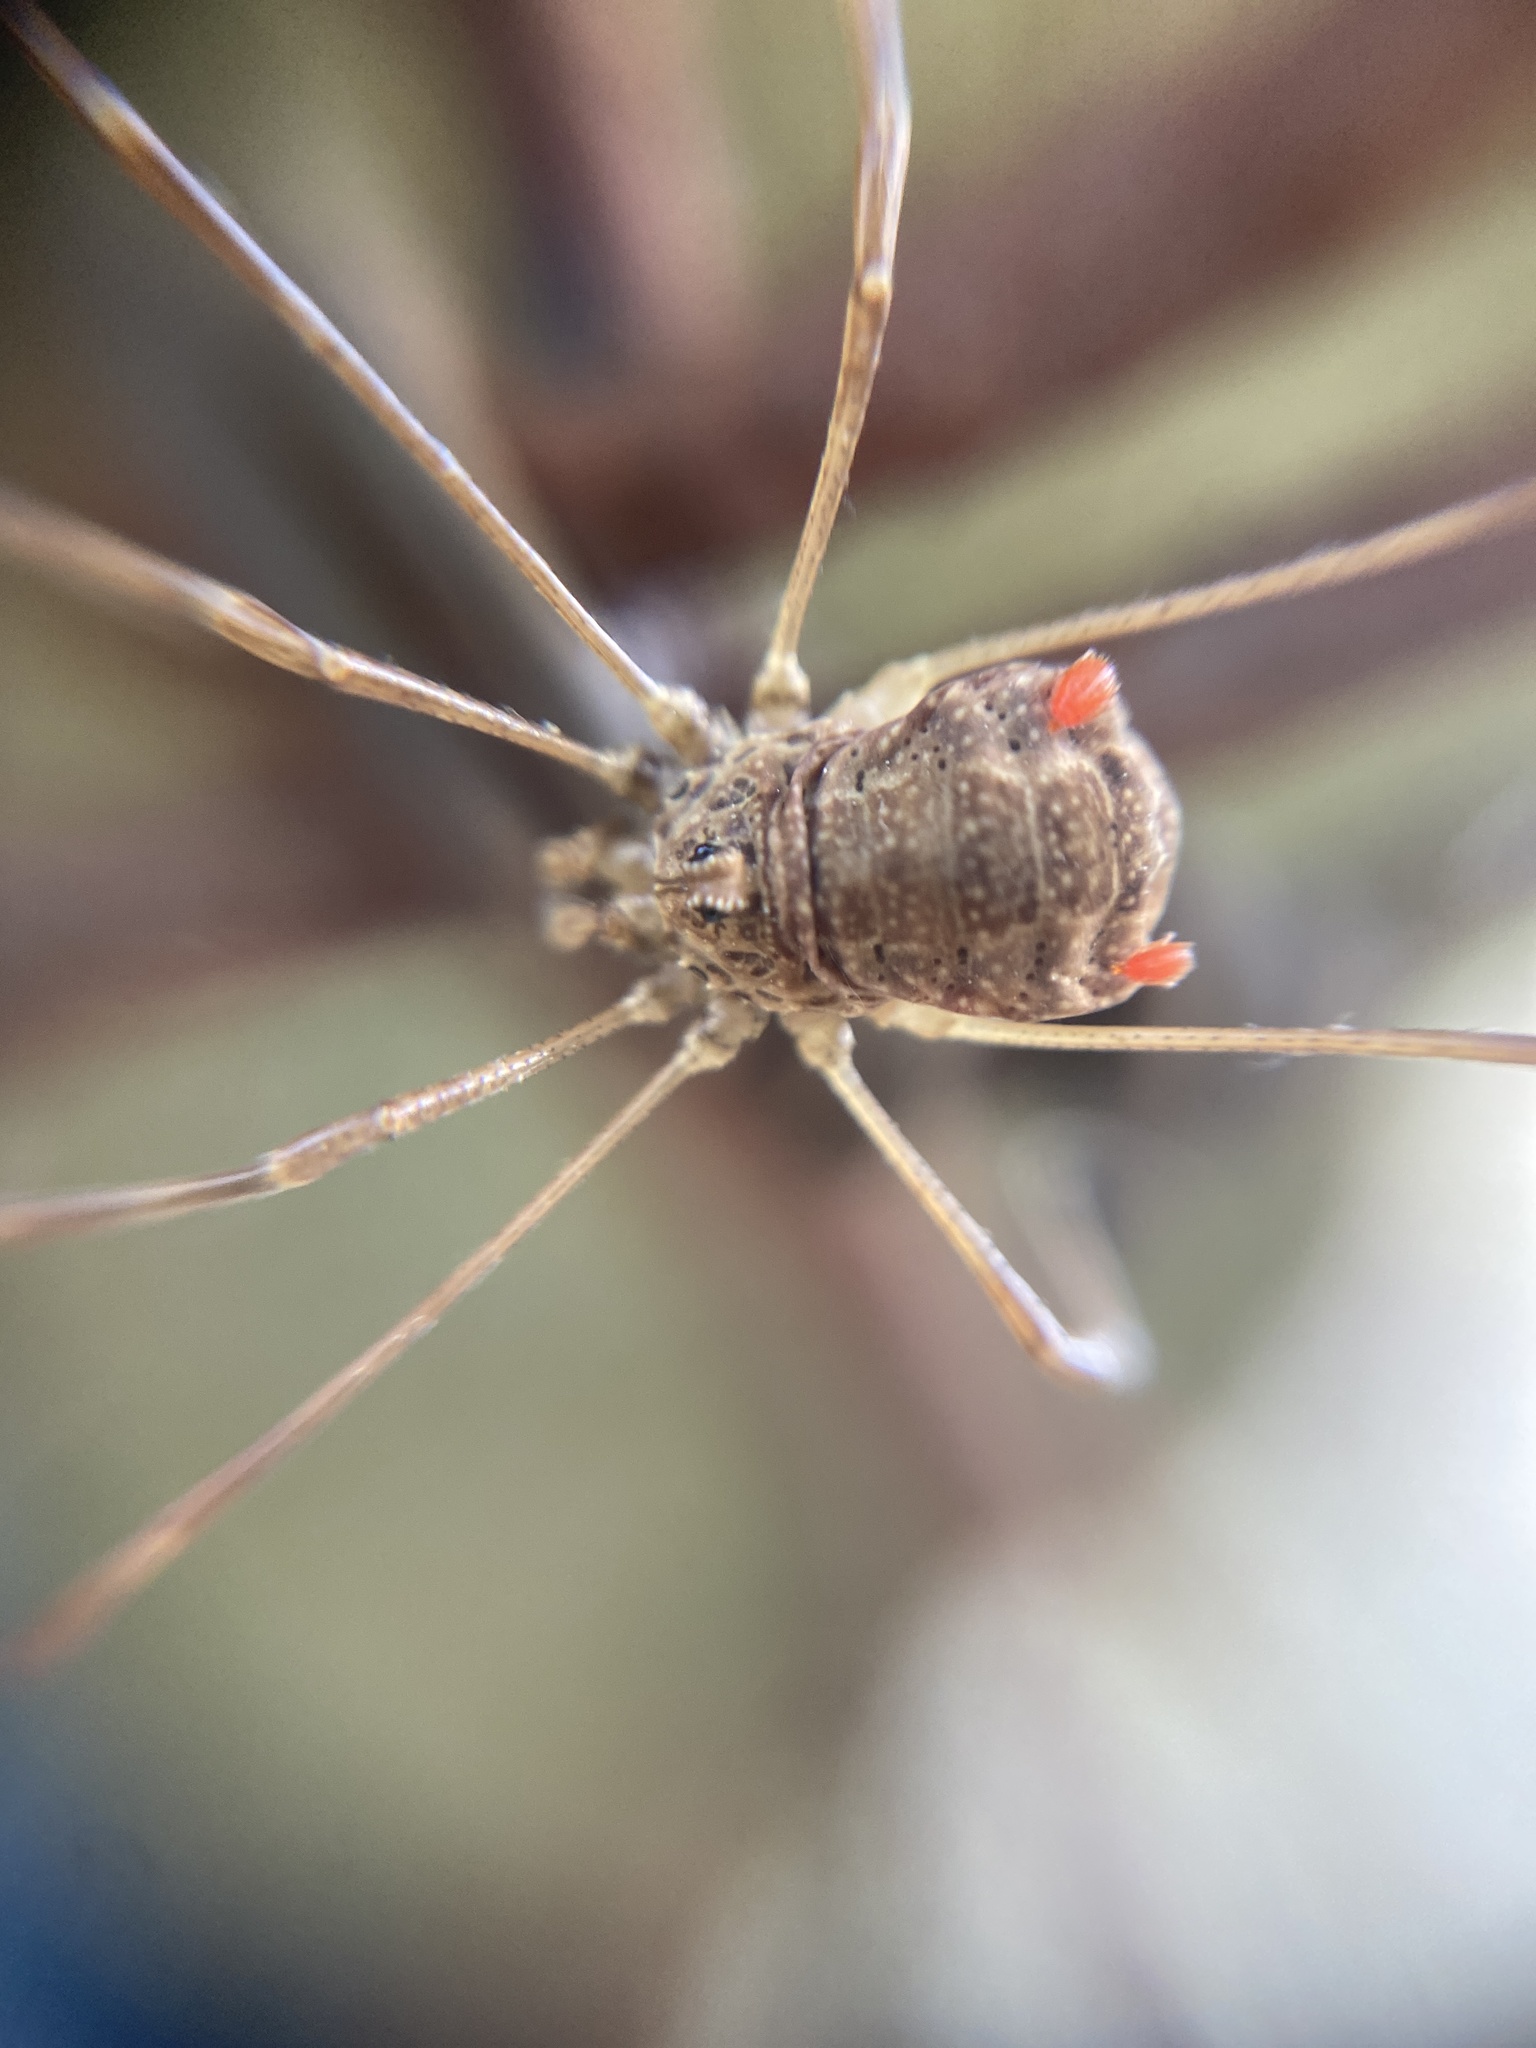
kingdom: Animalia
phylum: Arthropoda
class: Arachnida
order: Opiliones
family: Phalangiidae
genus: Rilaena
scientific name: Rilaena triangularis
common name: Spring harvestman
